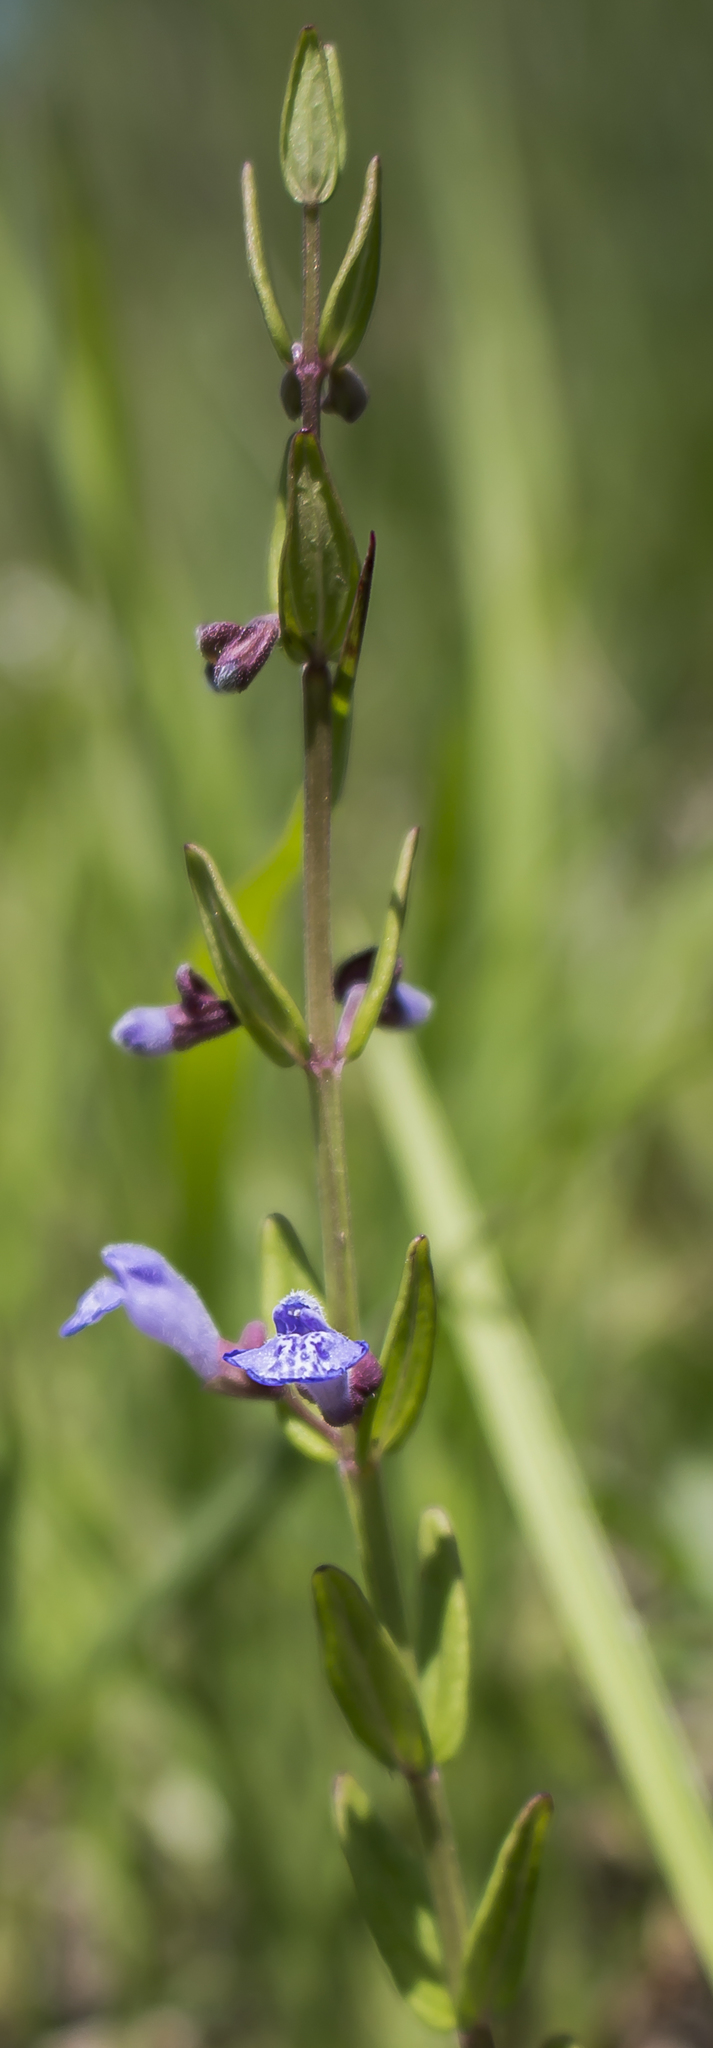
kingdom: Plantae
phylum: Tracheophyta
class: Magnoliopsida
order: Lamiales
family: Lamiaceae
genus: Scutellaria
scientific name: Scutellaria parvula
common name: Little scullcap
